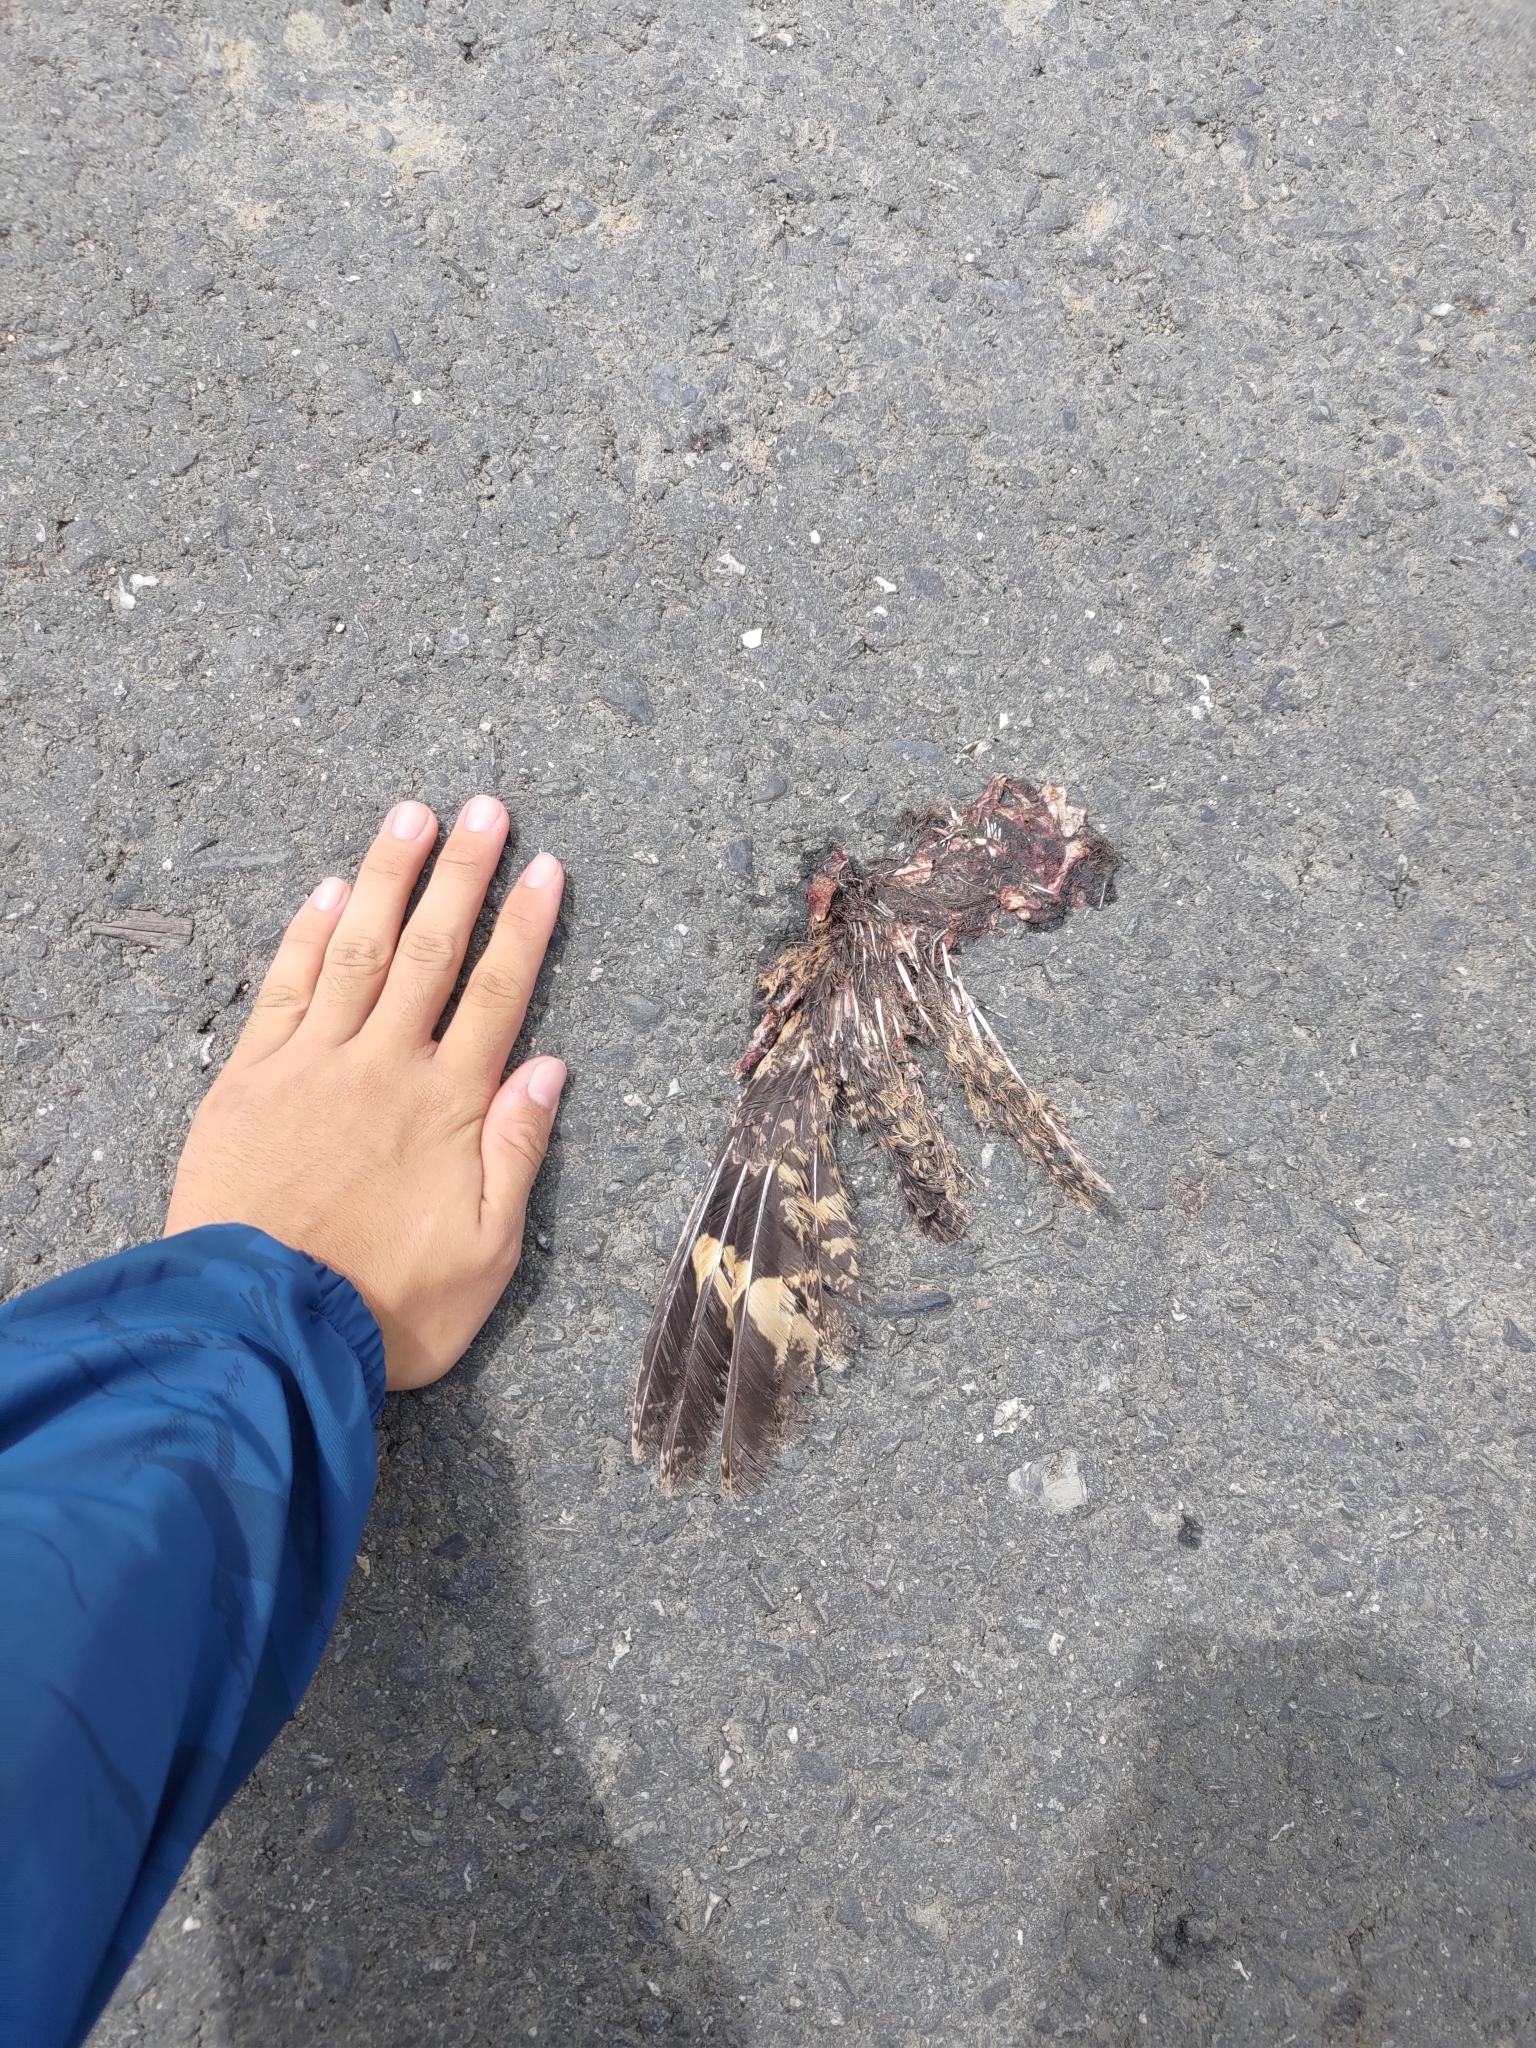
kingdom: Animalia
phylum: Chordata
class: Aves
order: Caprimulgiformes
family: Caprimulgidae
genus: Caprimulgus
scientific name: Caprimulgus affinis
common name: Savanna nightjar
